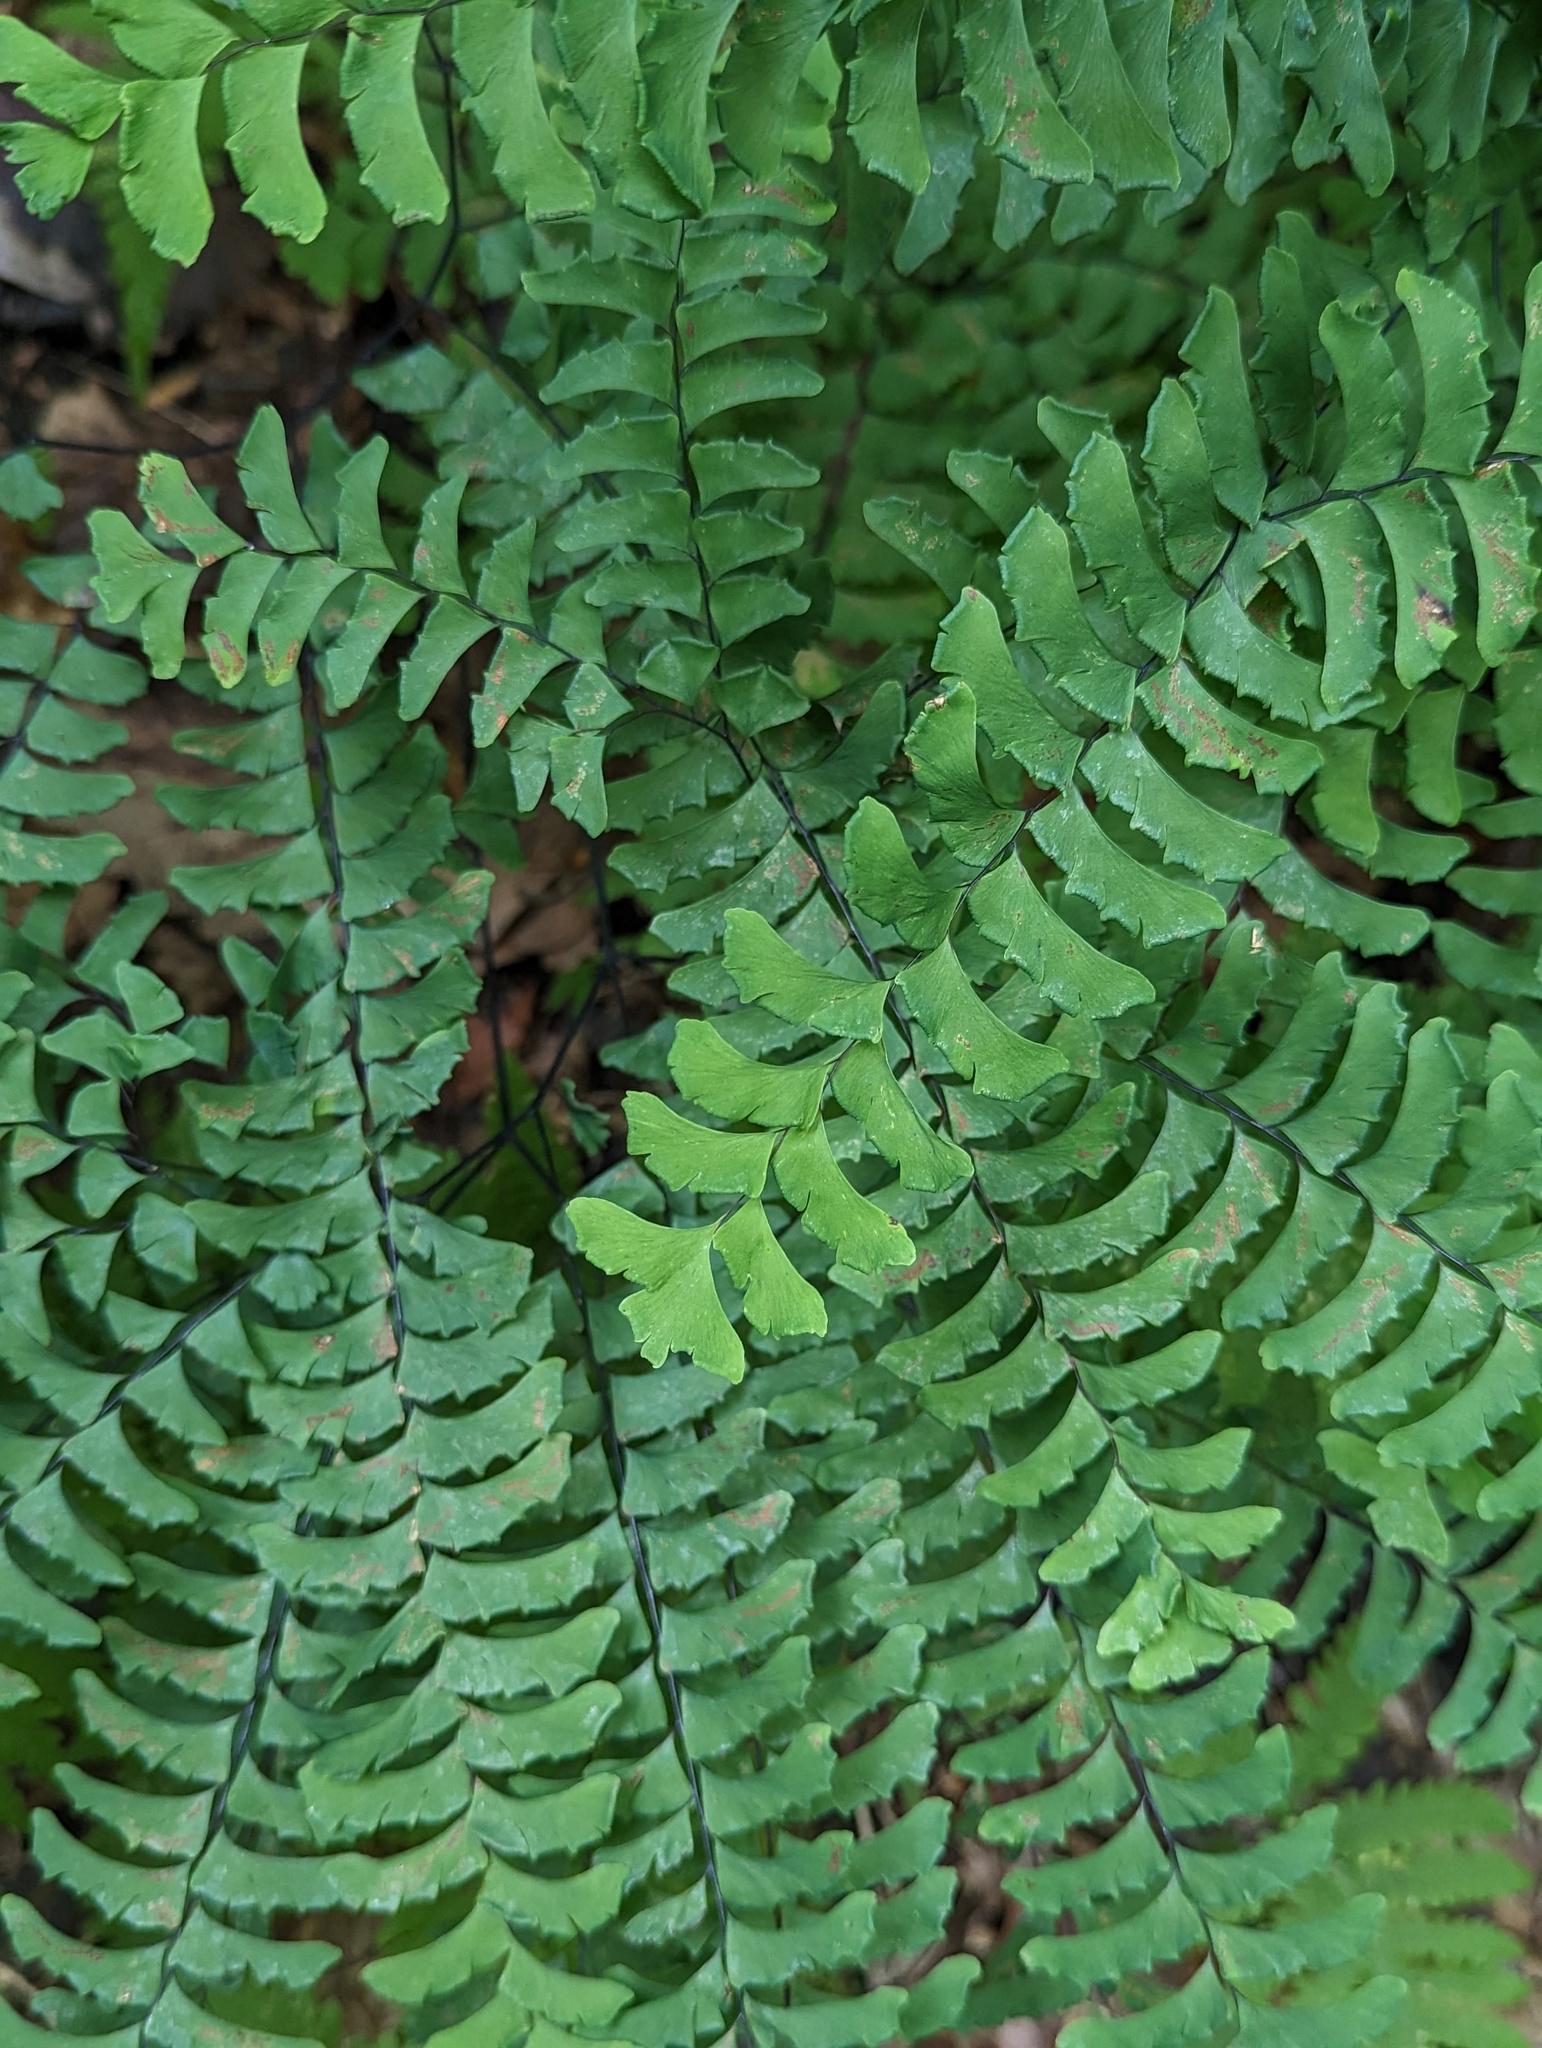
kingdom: Plantae
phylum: Tracheophyta
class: Polypodiopsida
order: Polypodiales
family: Pteridaceae
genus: Adiantum
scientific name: Adiantum pedatum
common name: Five-finger fern
